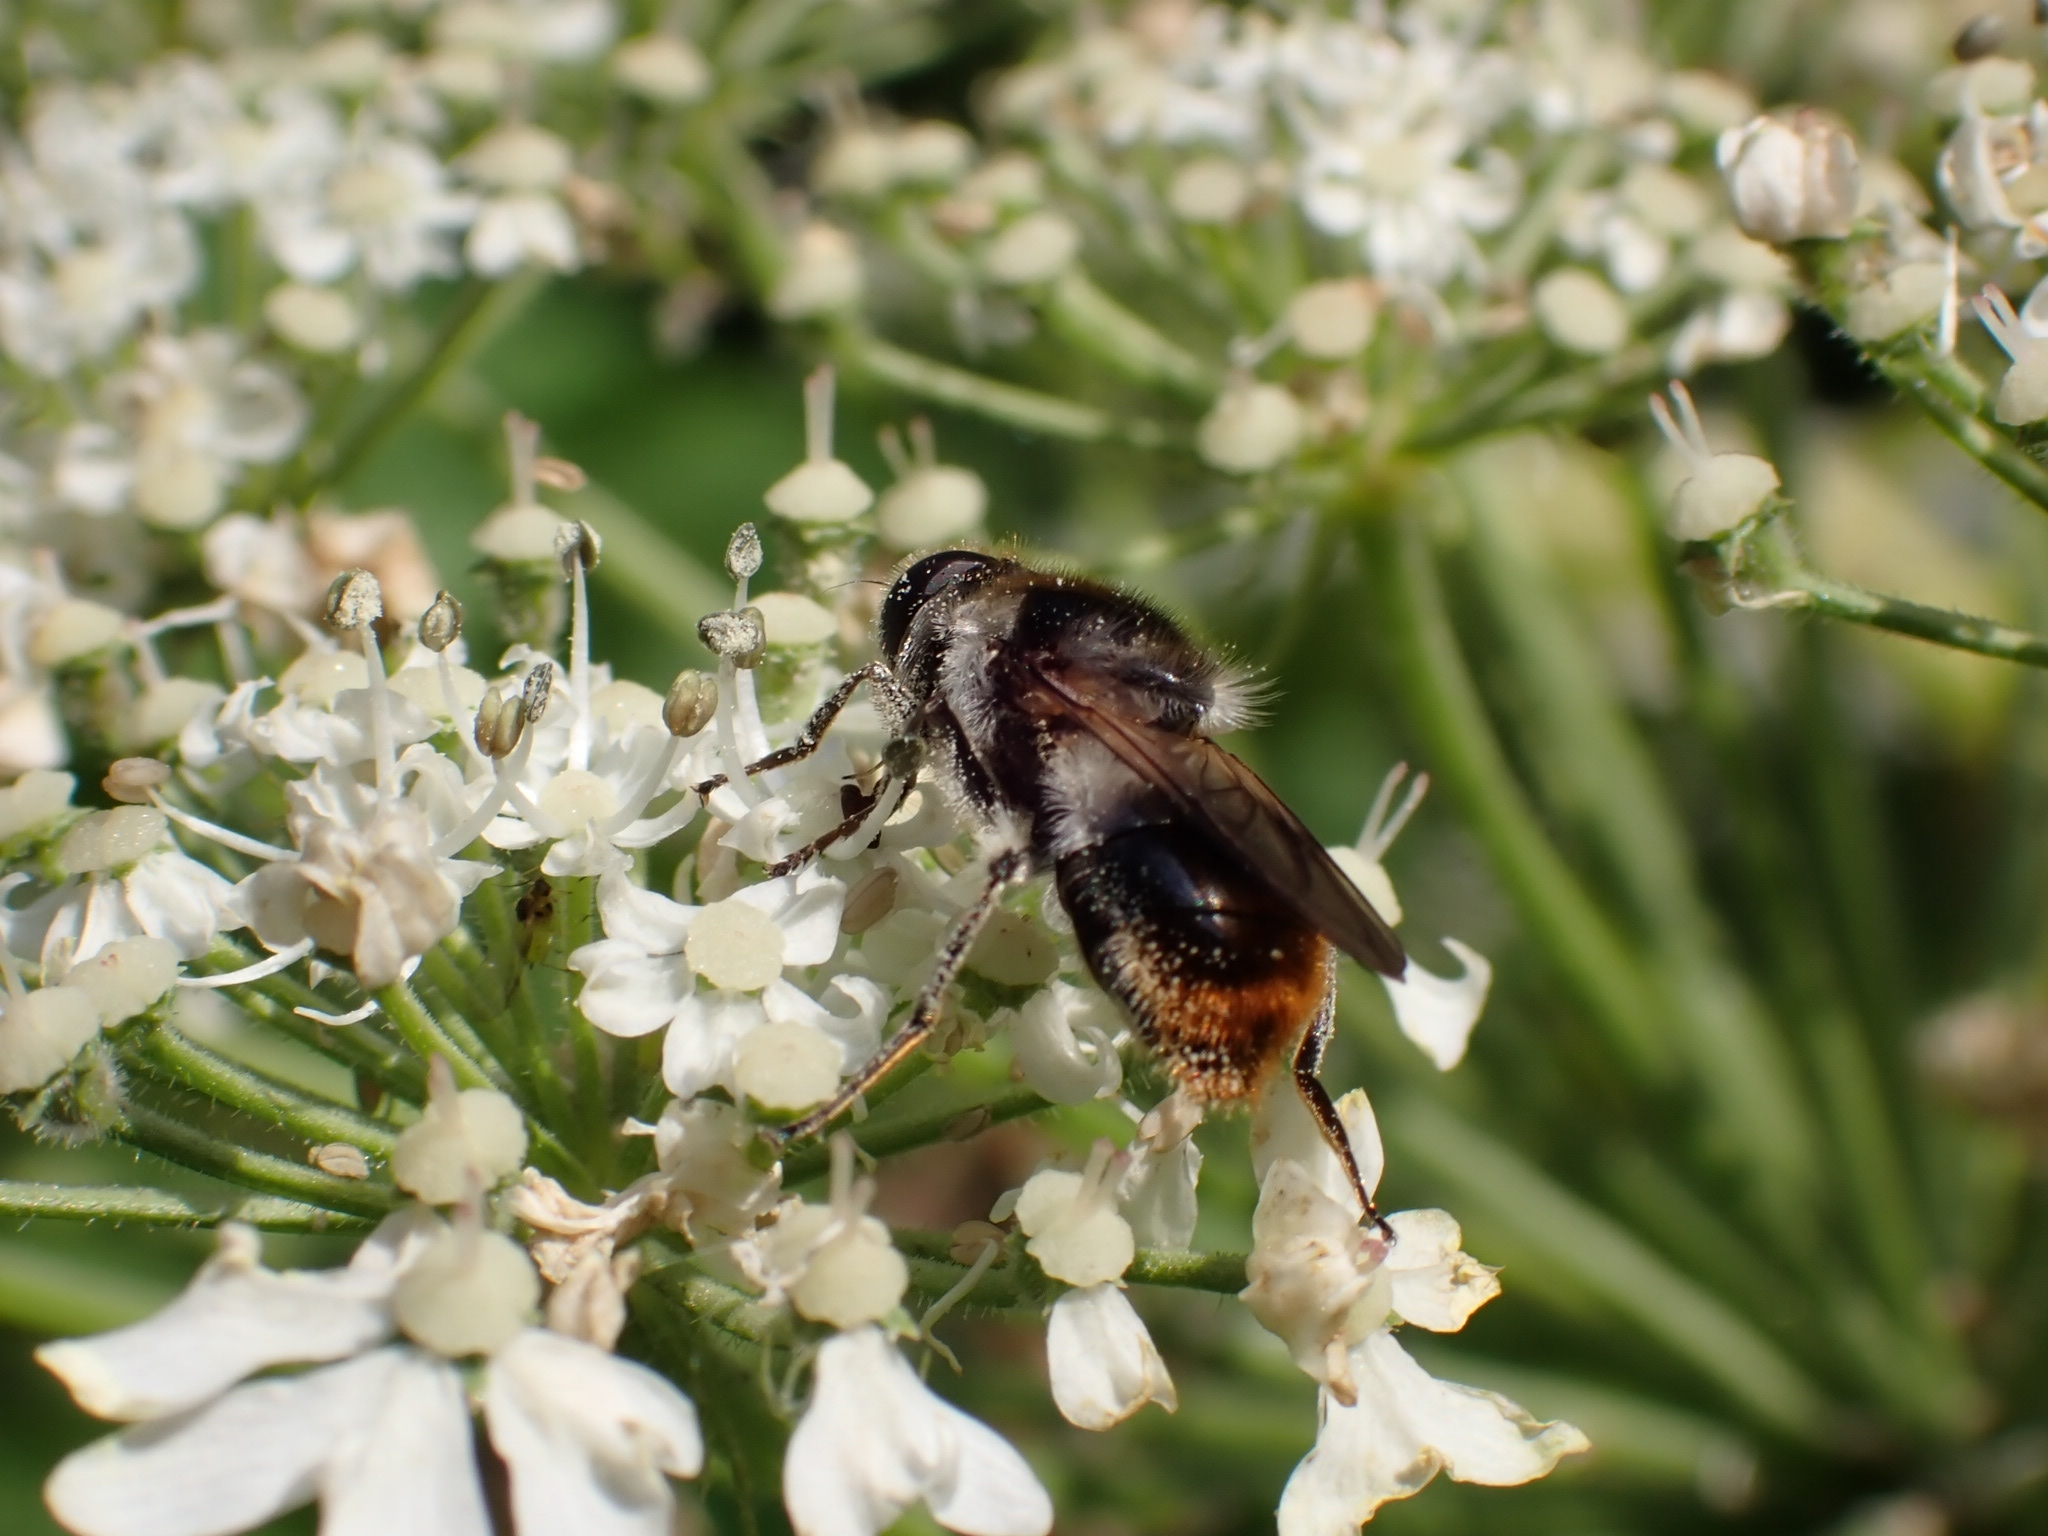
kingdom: Animalia
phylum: Arthropoda
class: Insecta
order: Diptera
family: Syrphidae
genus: Cheilosia
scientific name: Cheilosia illustrata
